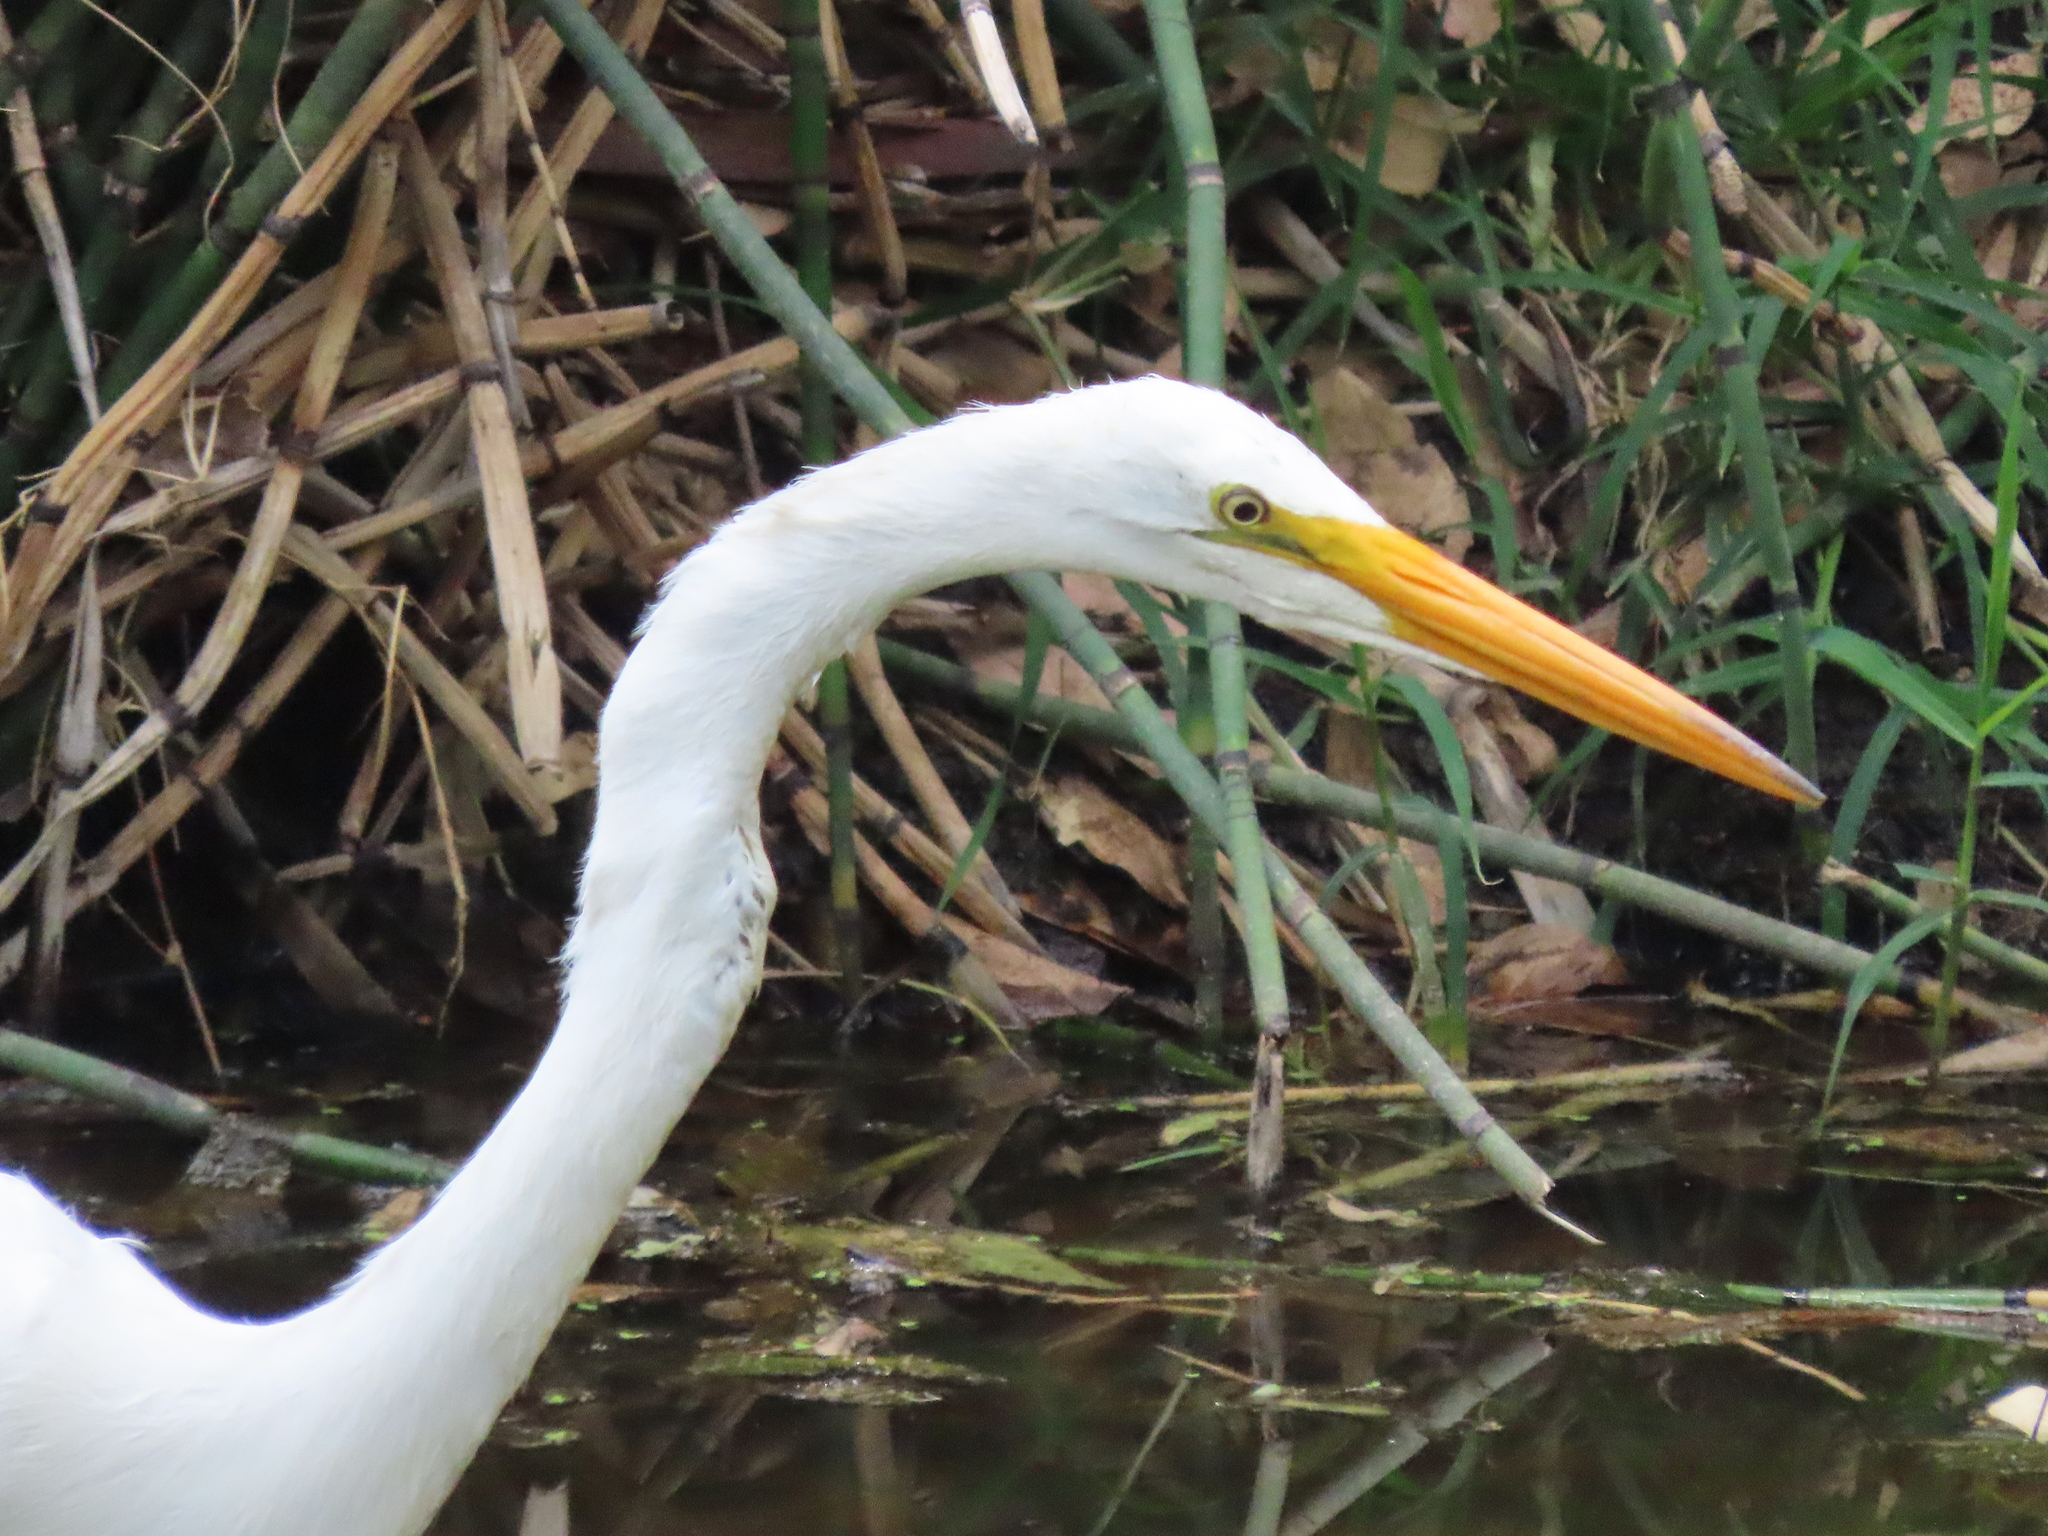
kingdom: Animalia
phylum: Chordata
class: Aves
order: Pelecaniformes
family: Ardeidae
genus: Ardea
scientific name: Ardea alba
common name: Great egret
